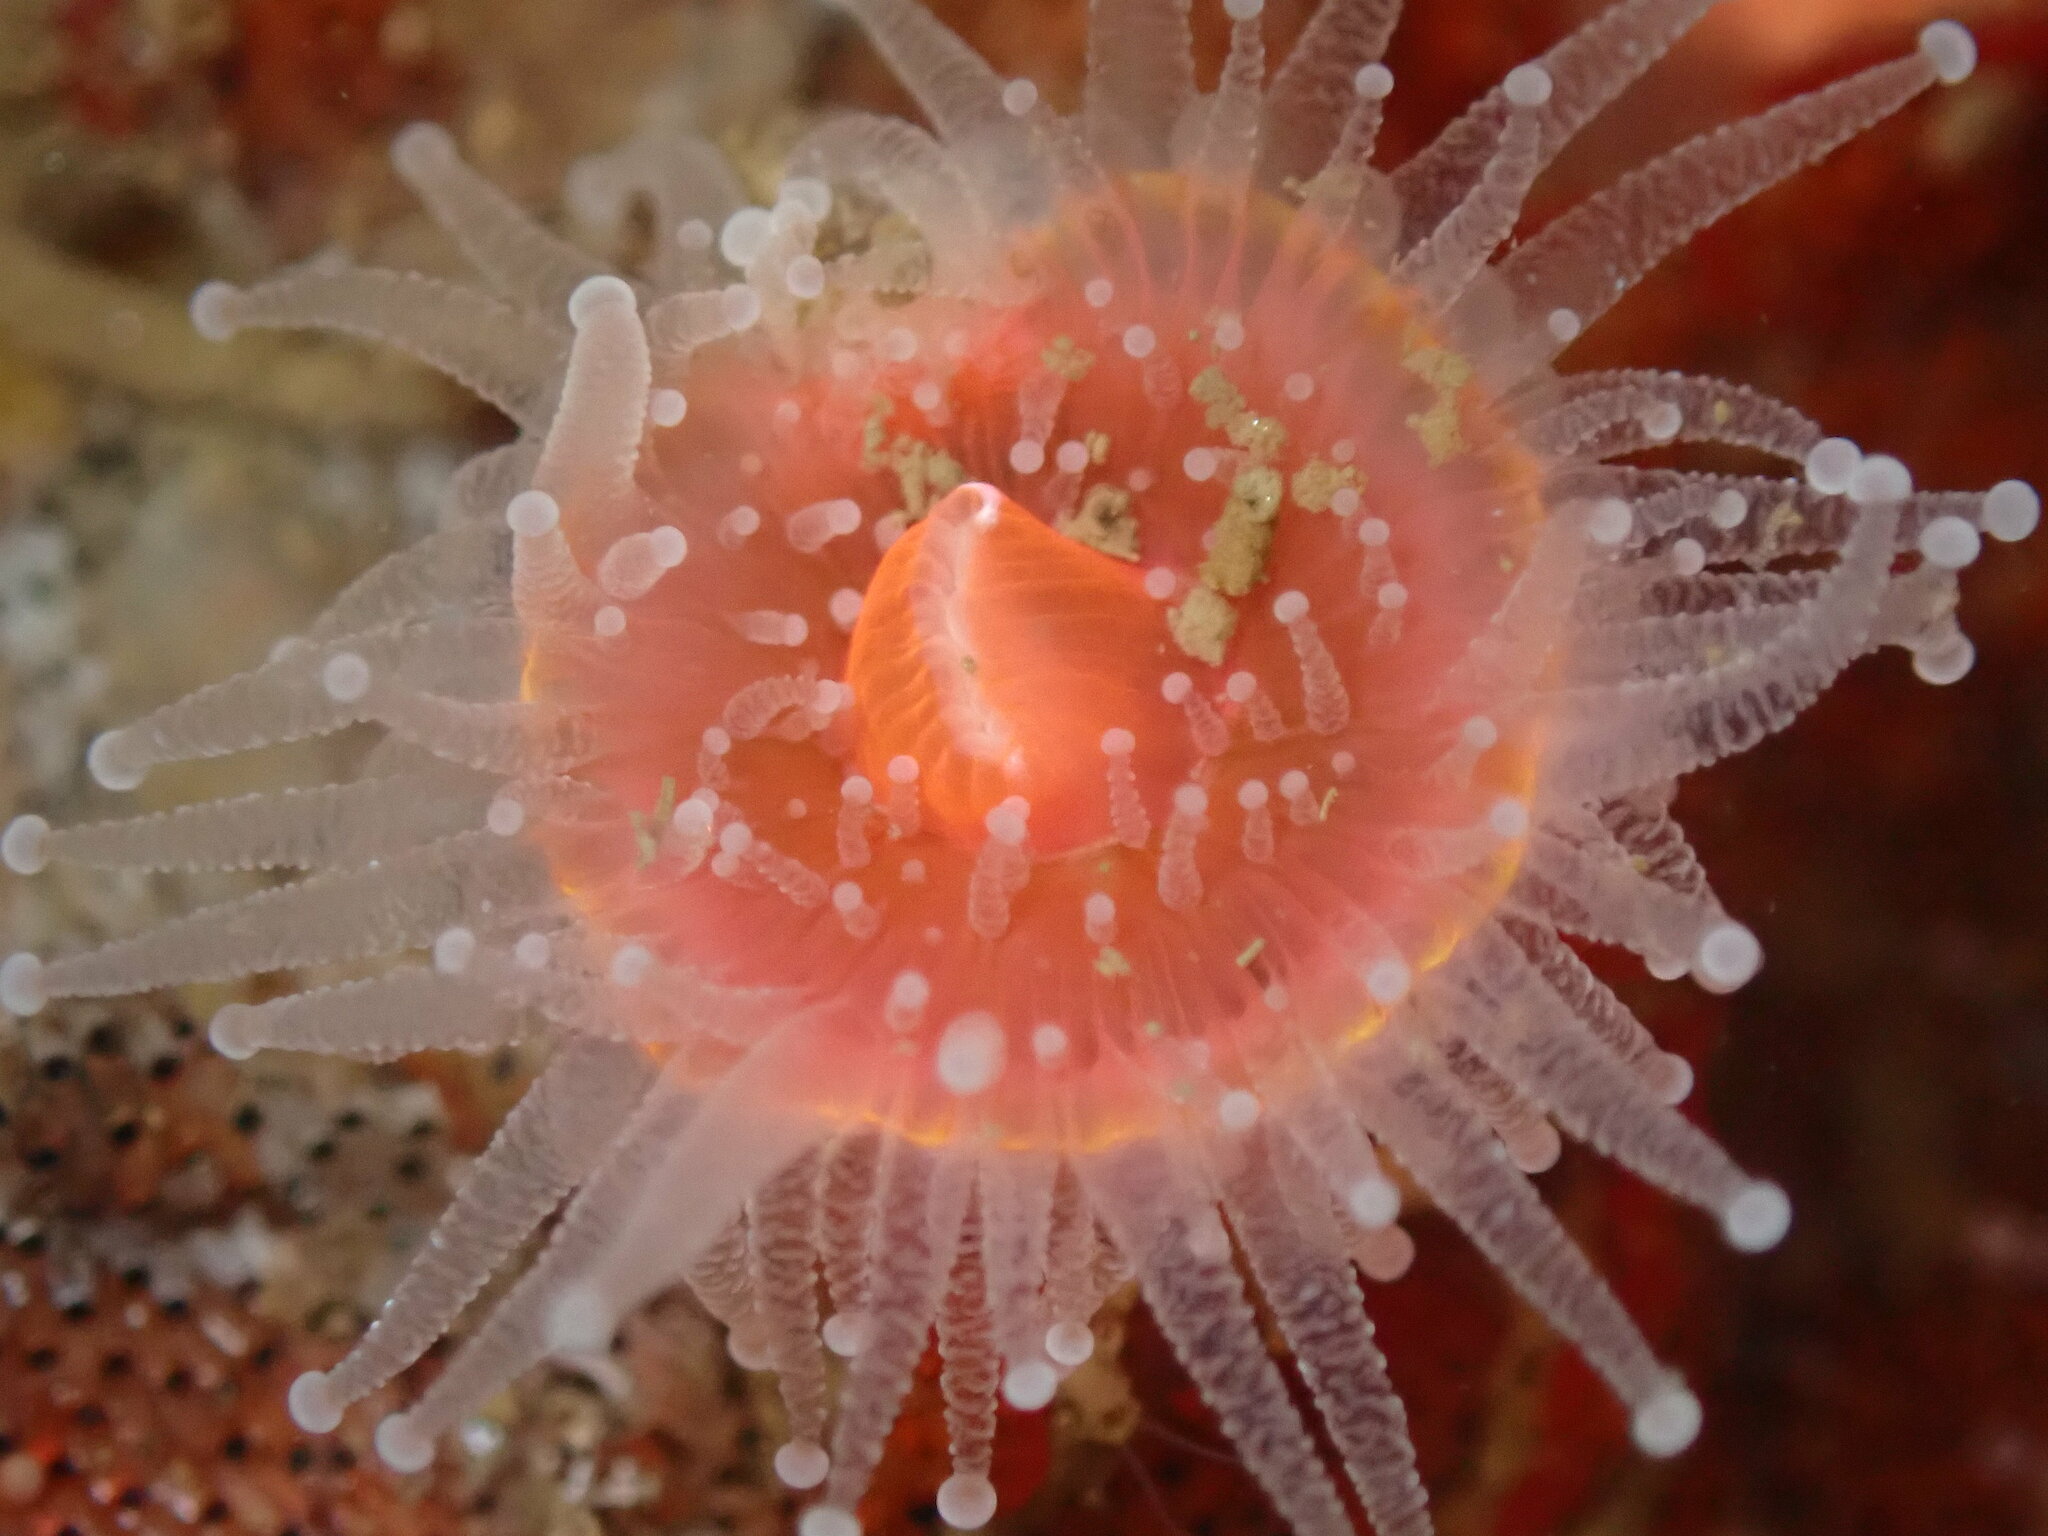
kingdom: Animalia
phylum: Cnidaria
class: Anthozoa
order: Corallimorpharia
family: Corallimorphidae
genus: Corynactis
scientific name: Corynactis californica
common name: Strawberry corallimorpharian
